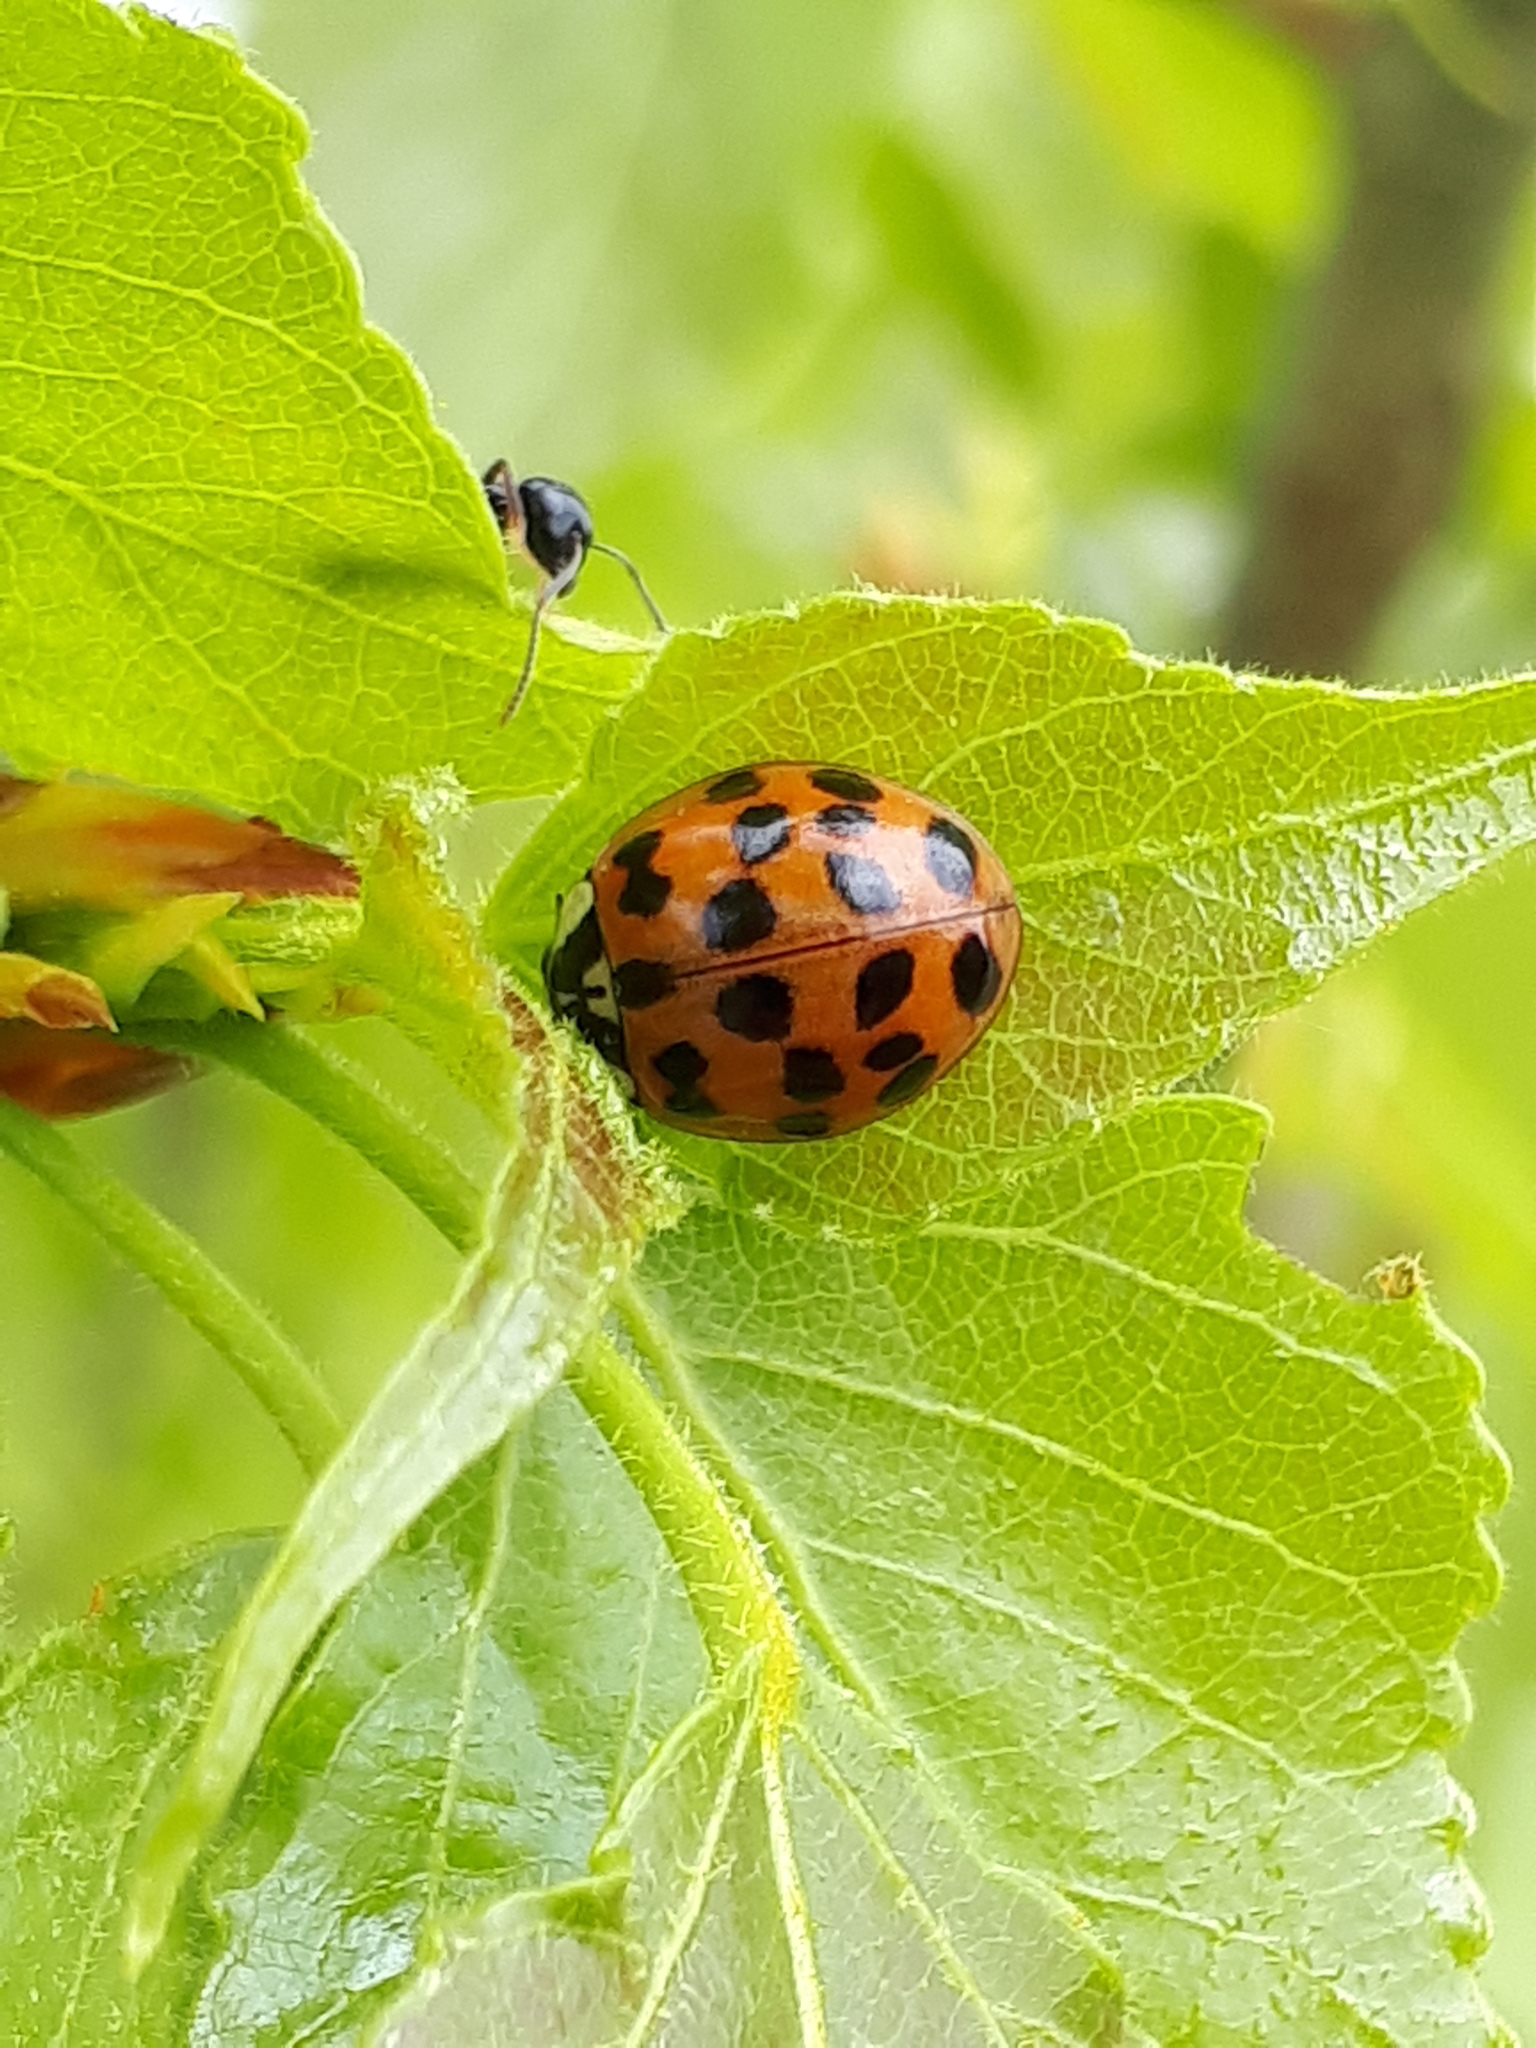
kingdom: Animalia
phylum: Arthropoda
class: Insecta
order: Coleoptera
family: Coccinellidae
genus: Harmonia
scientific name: Harmonia axyridis
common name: Harlequin ladybird
